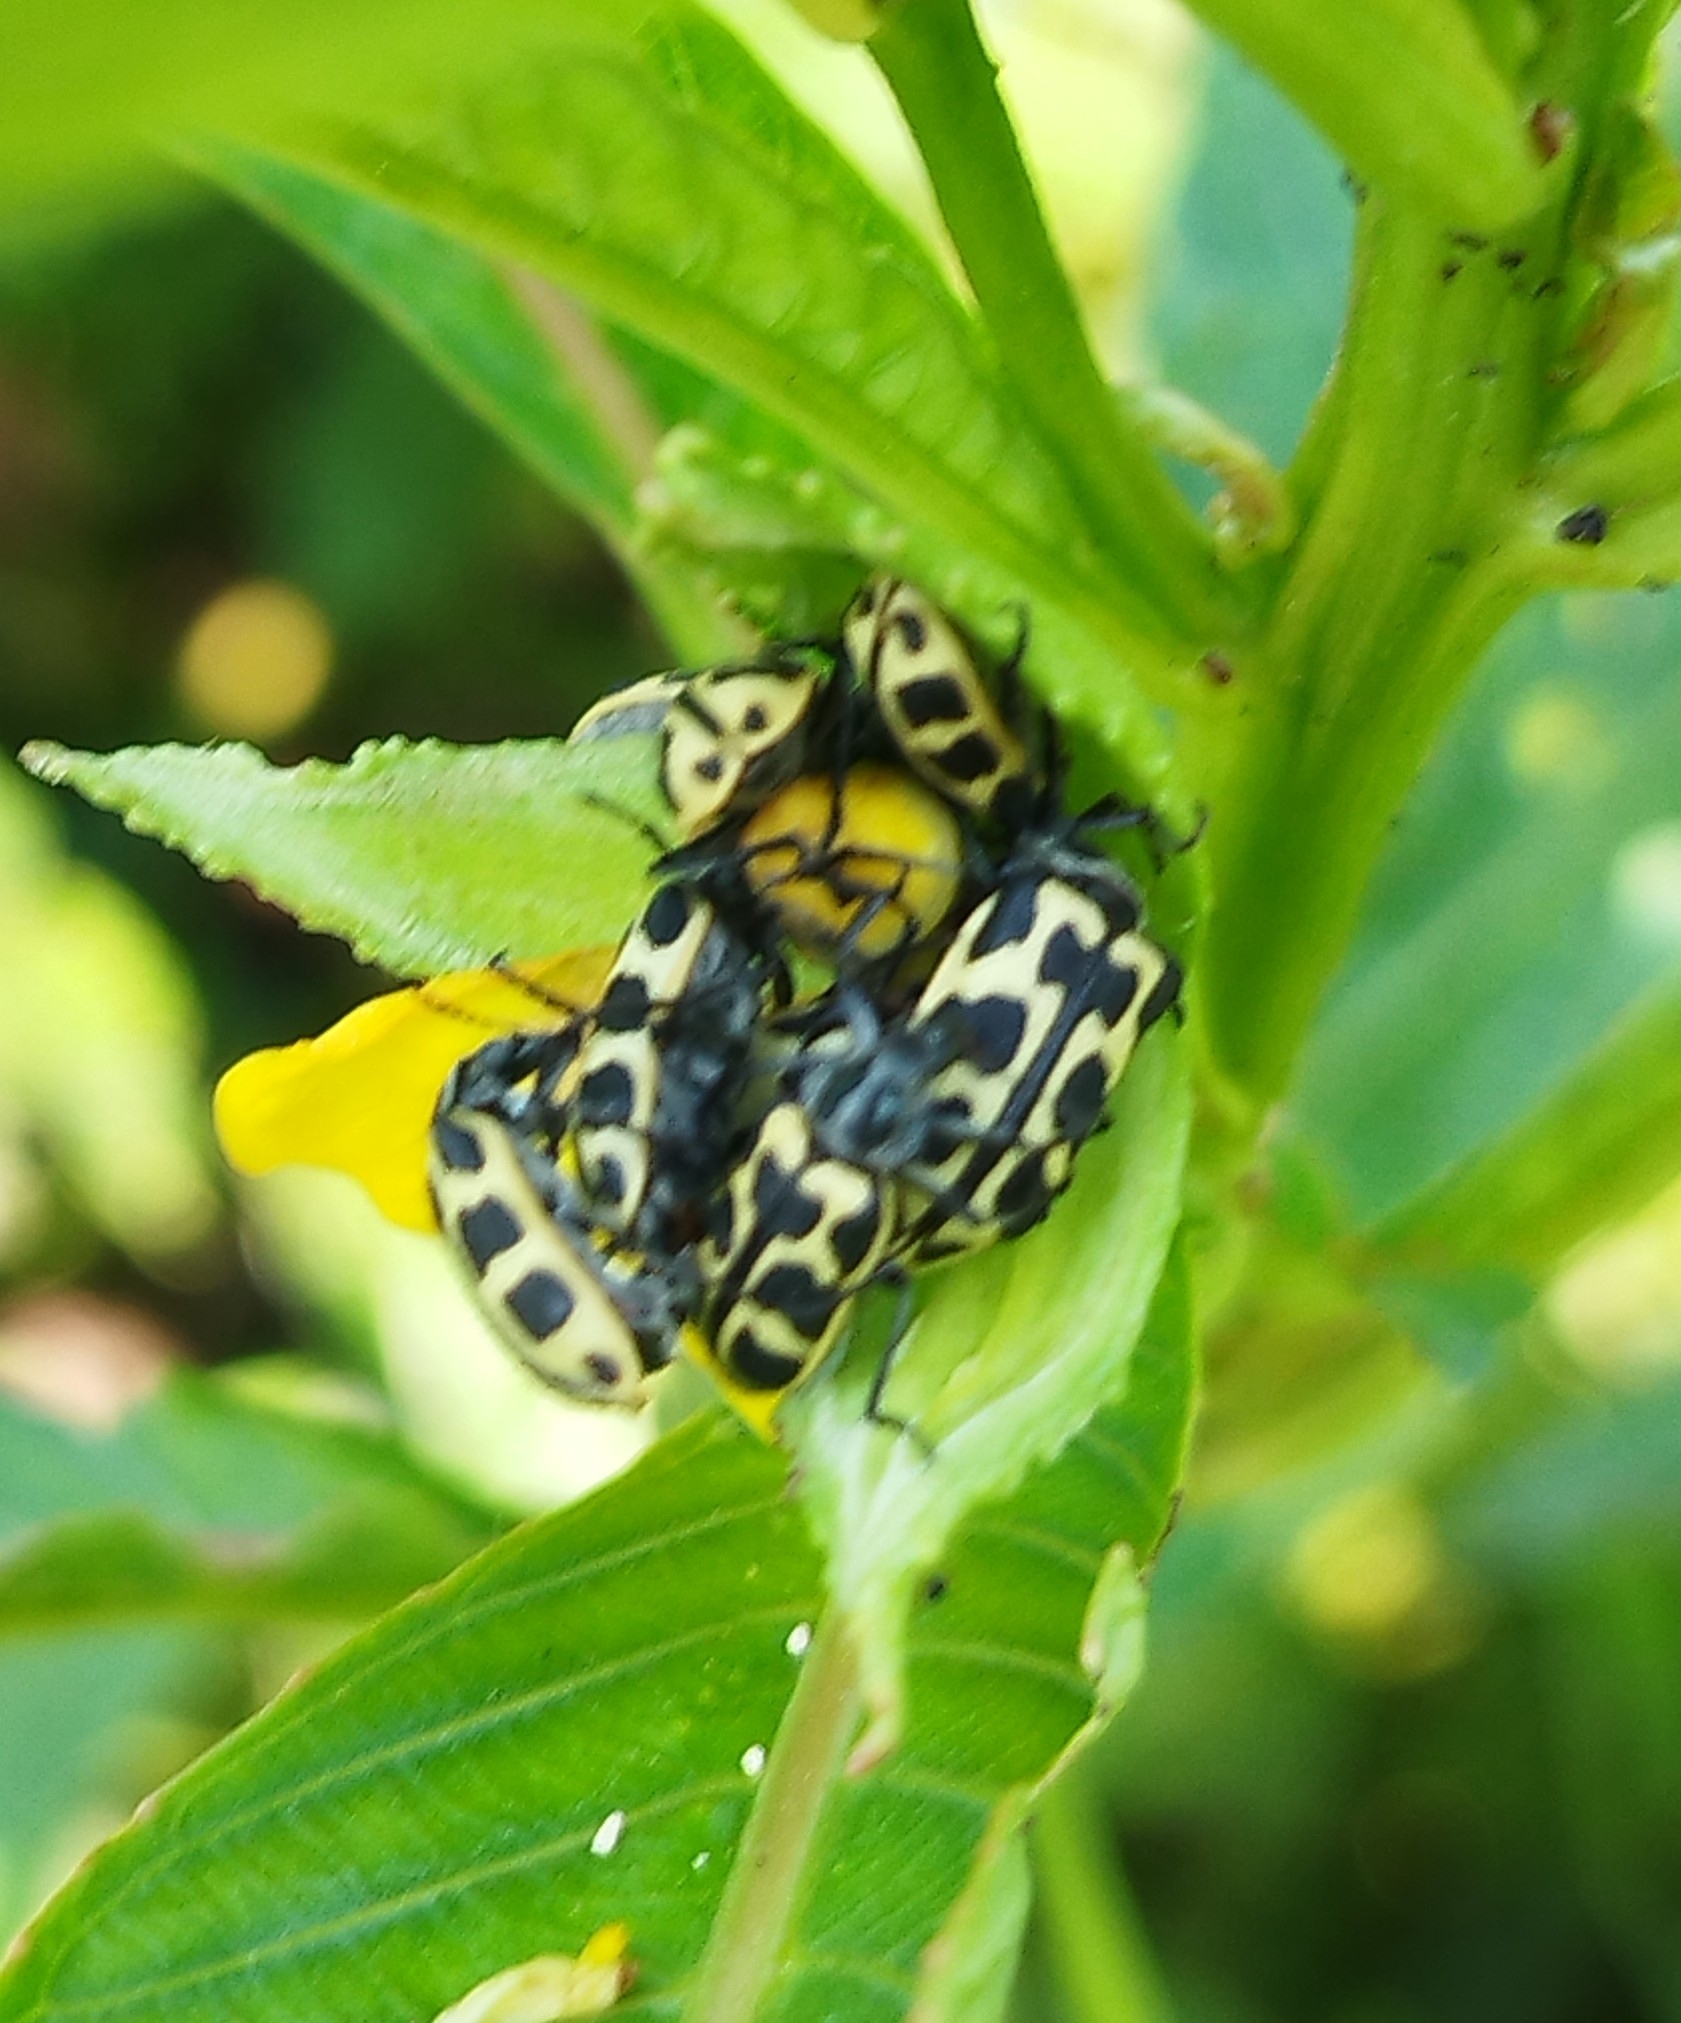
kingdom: Animalia
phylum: Arthropoda
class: Insecta
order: Coleoptera
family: Melyridae
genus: Astylus
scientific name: Astylus atromaculatus
